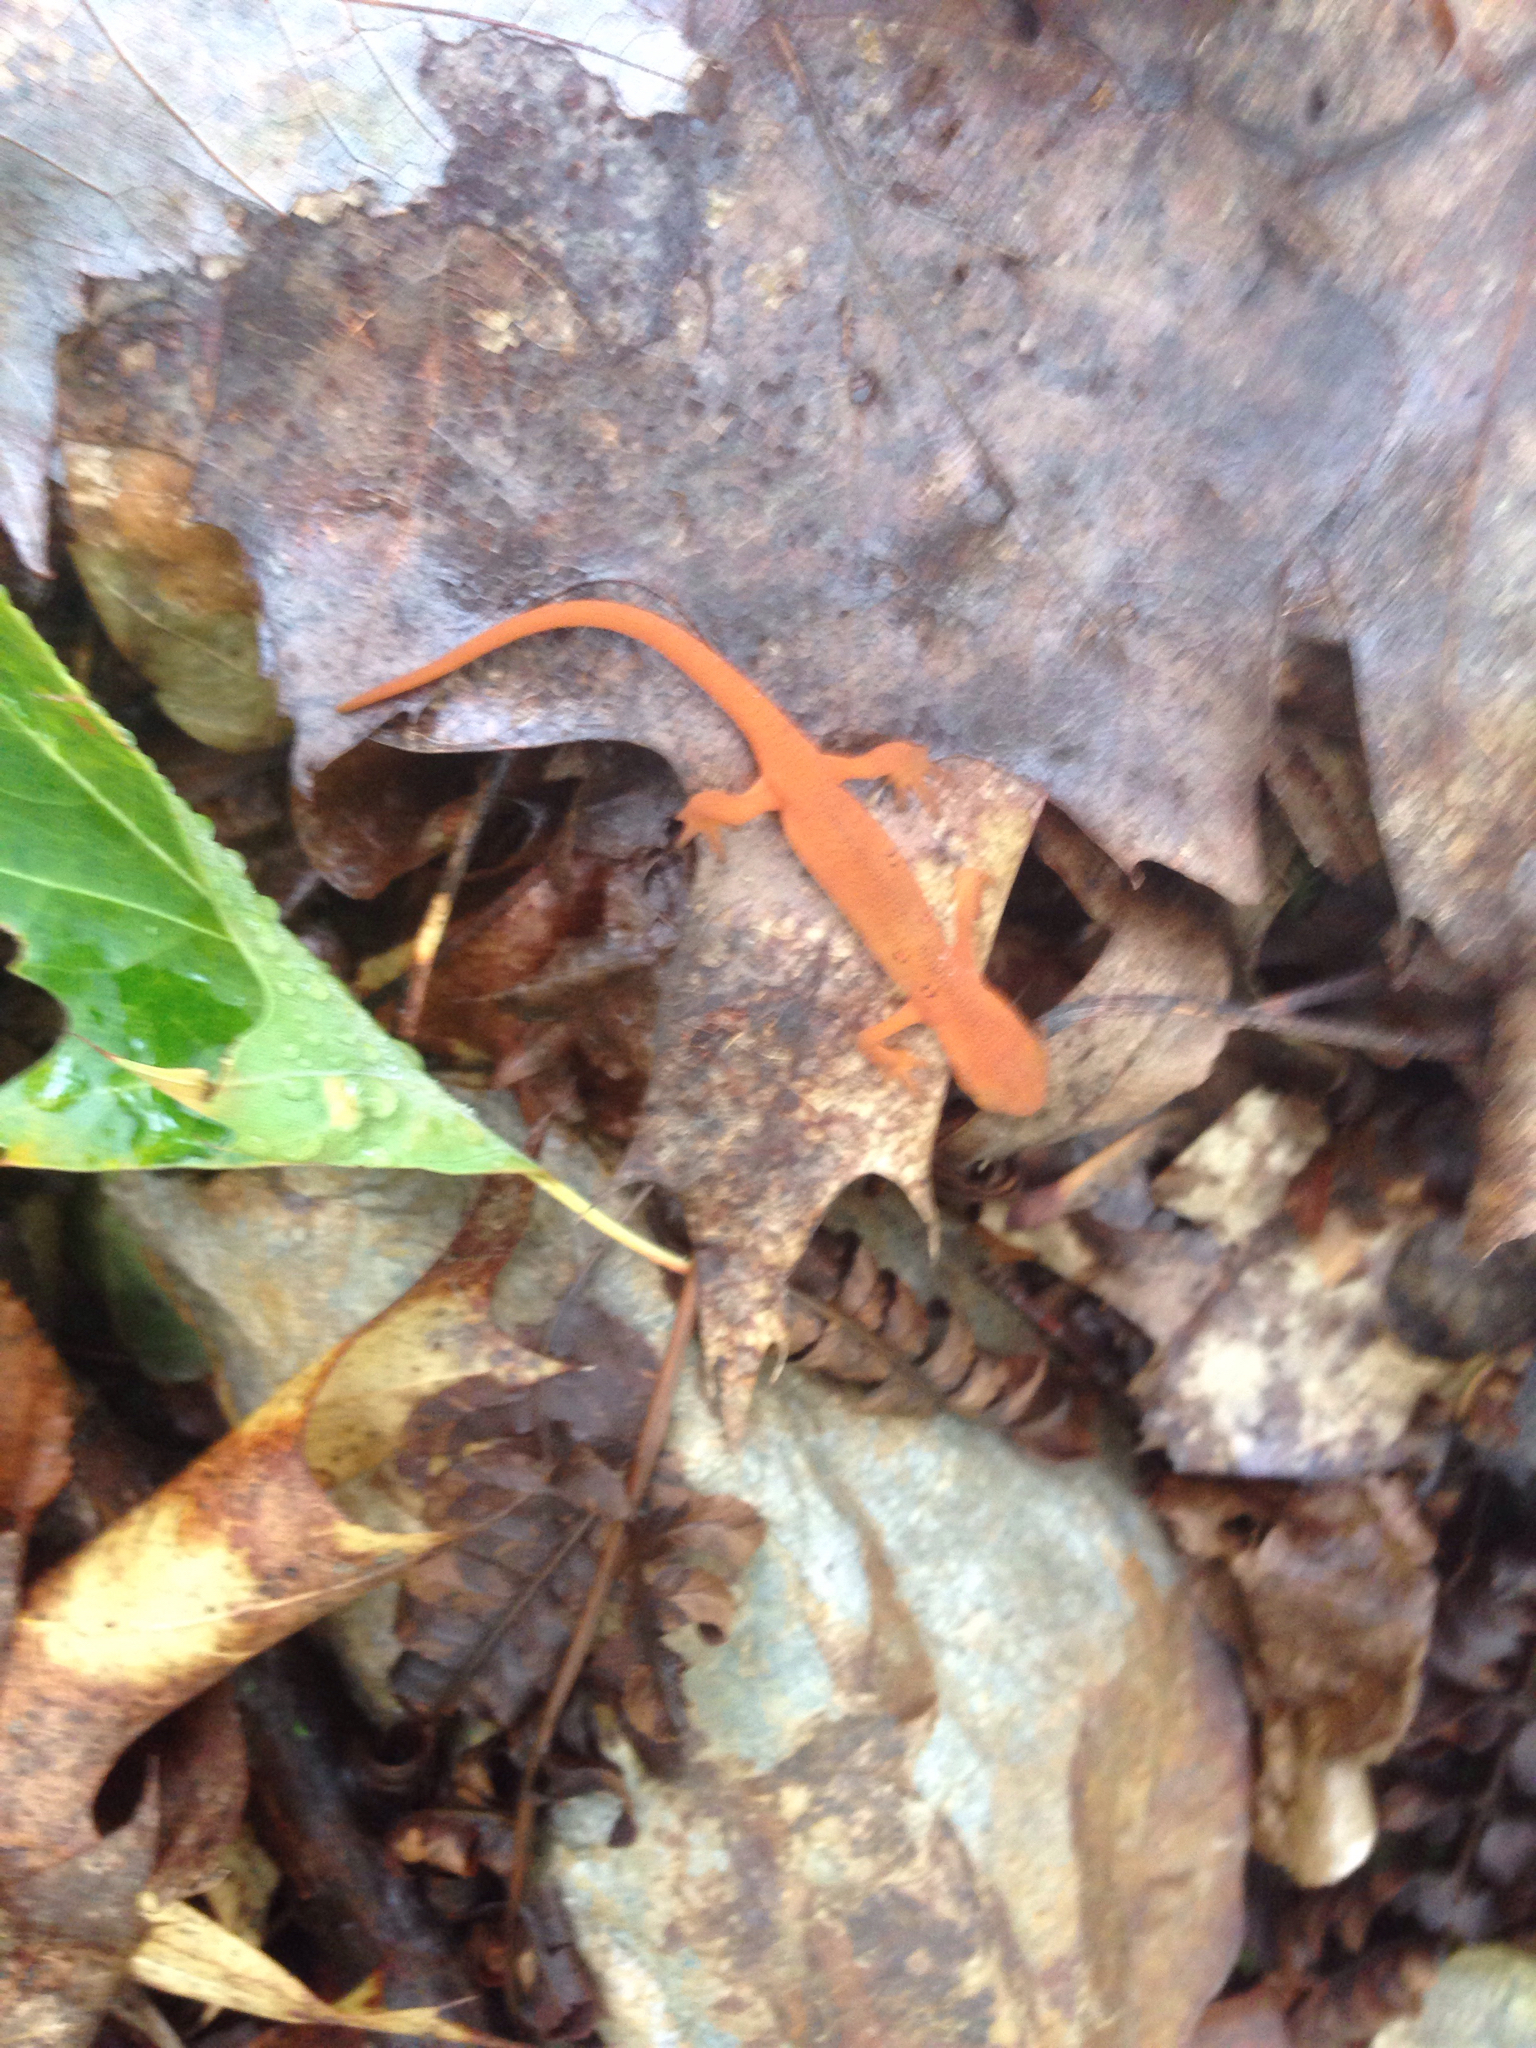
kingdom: Animalia
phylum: Chordata
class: Amphibia
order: Caudata
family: Salamandridae
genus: Notophthalmus
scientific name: Notophthalmus viridescens
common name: Eastern newt
